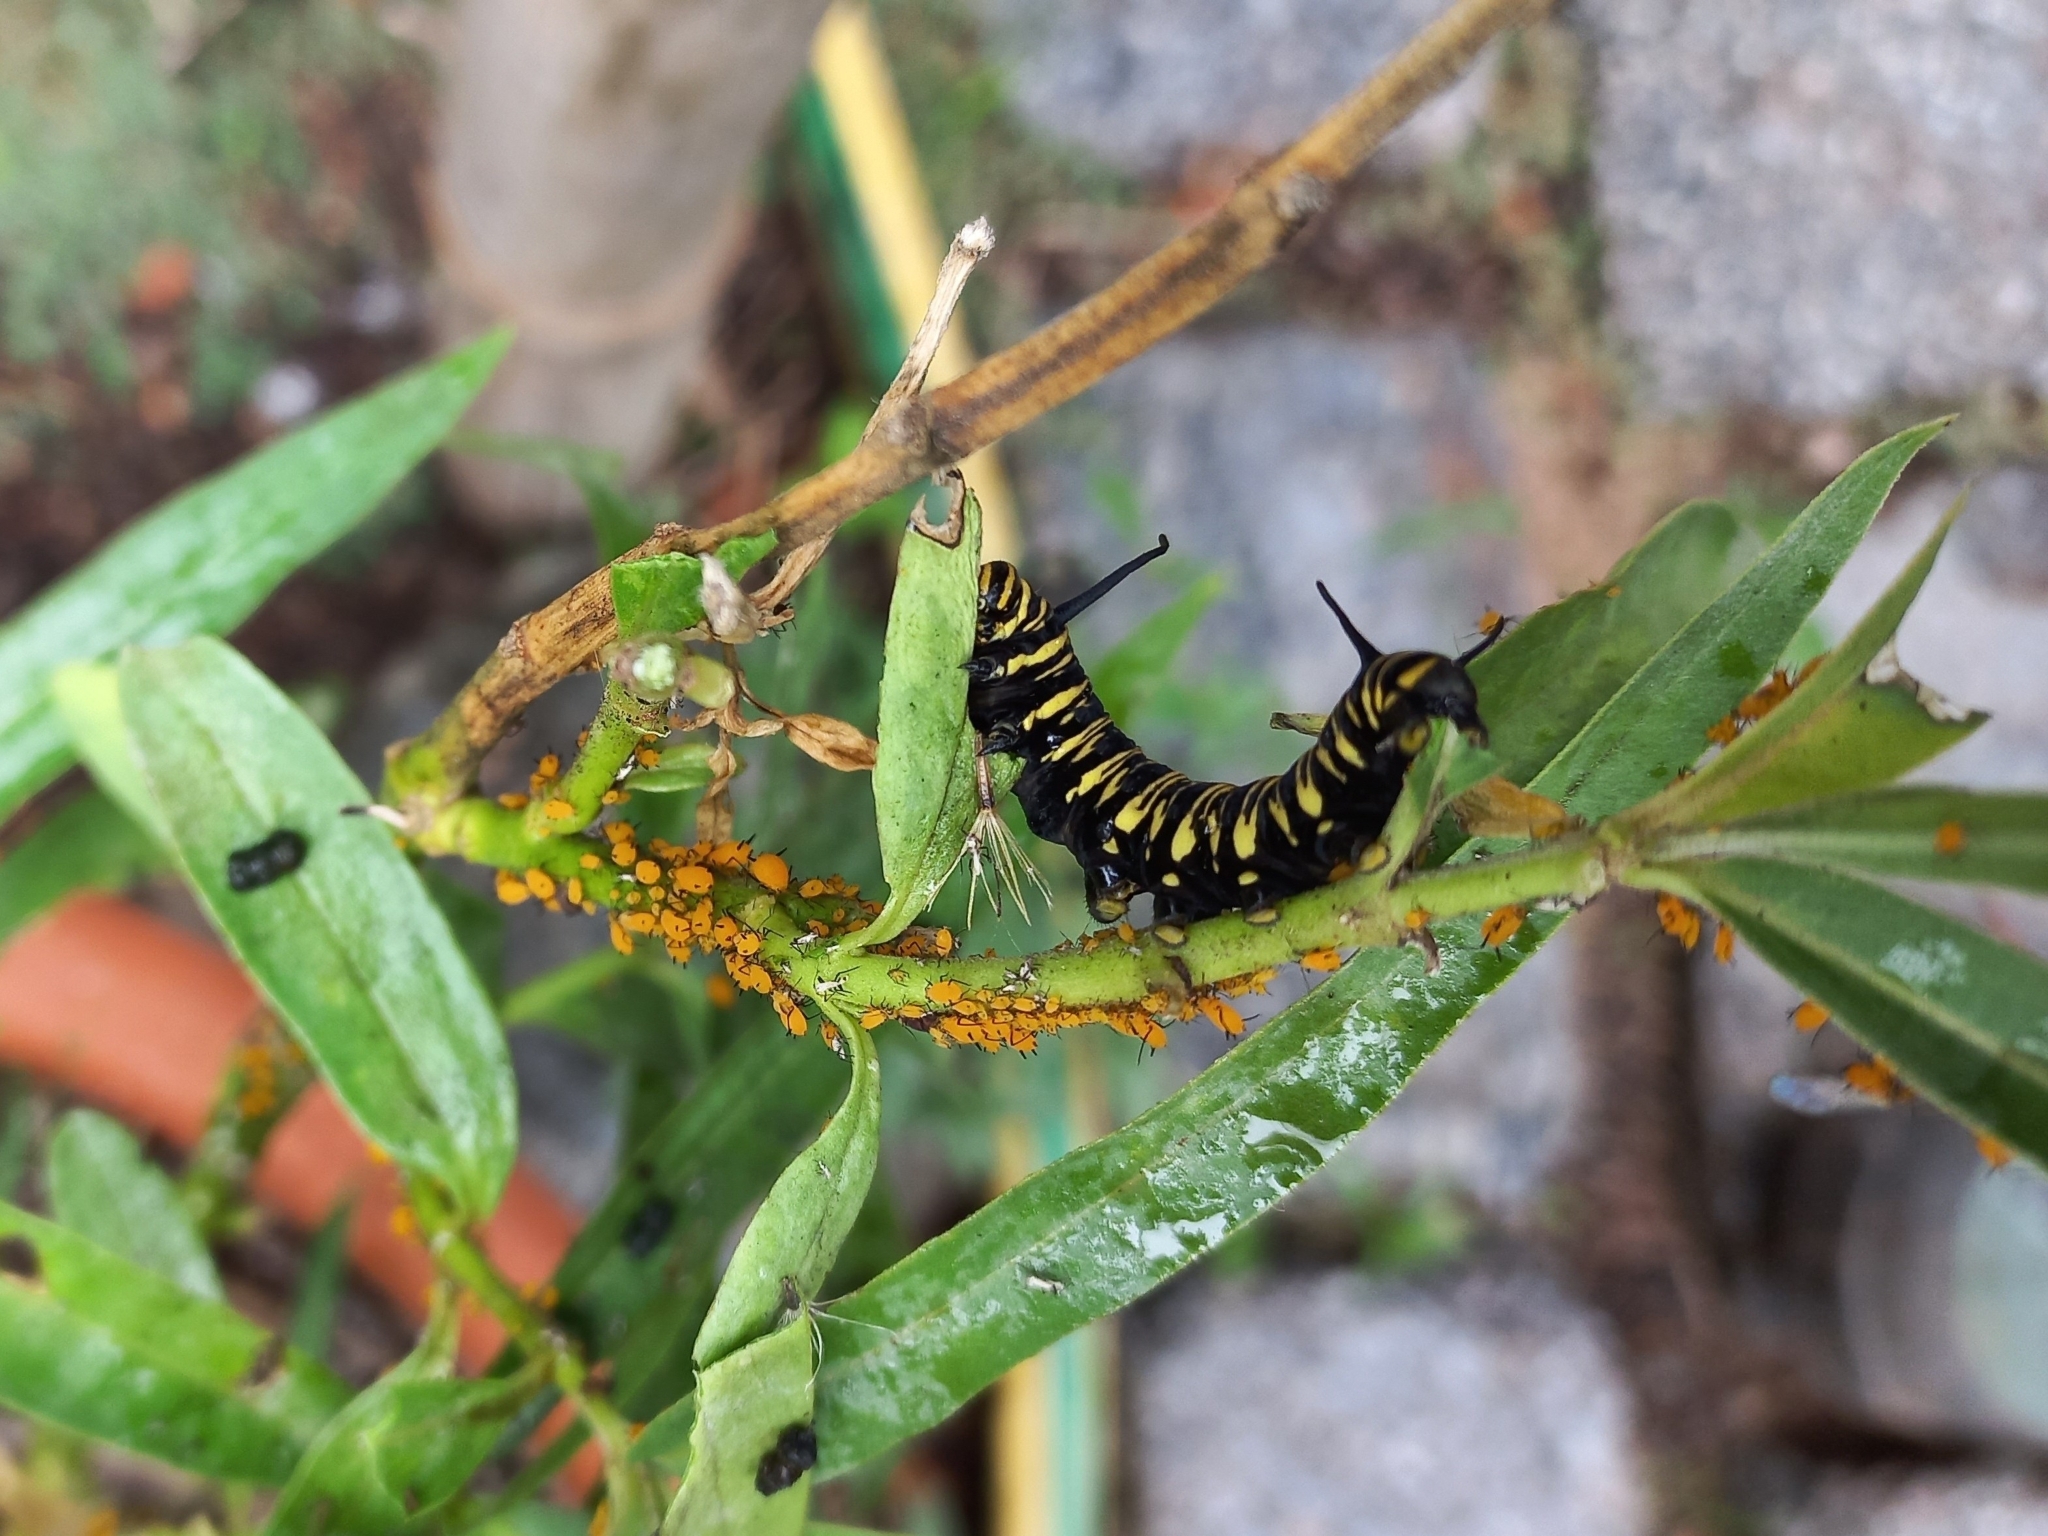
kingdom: Animalia
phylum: Arthropoda
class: Insecta
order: Lepidoptera
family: Nymphalidae
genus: Danaus
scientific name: Danaus erippus
